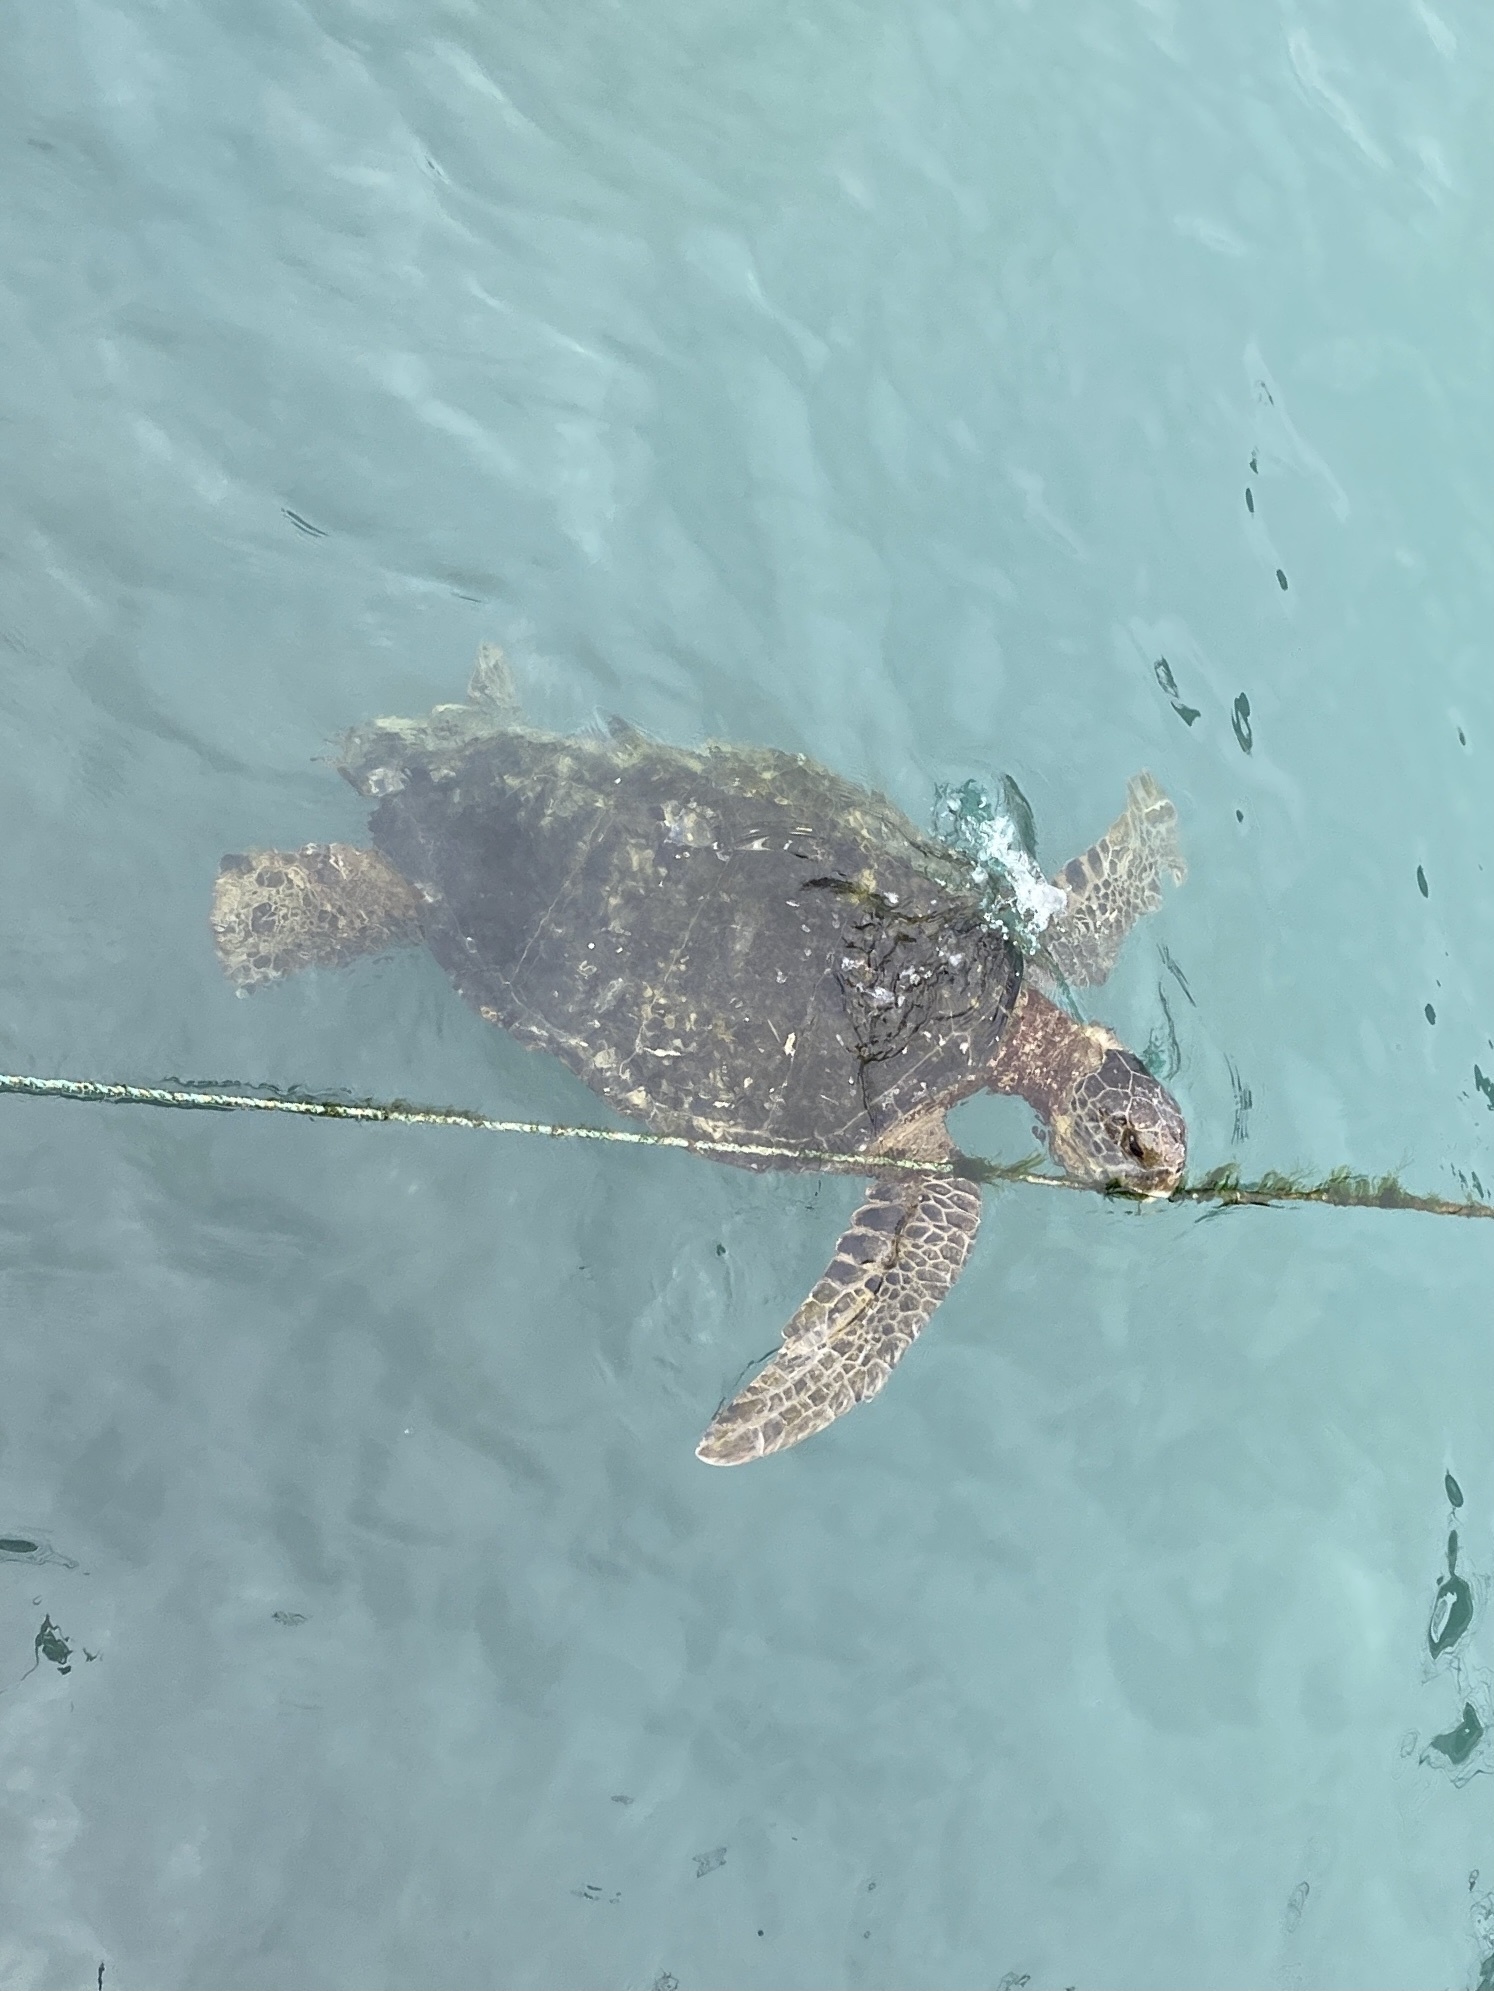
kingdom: Animalia
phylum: Chordata
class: Testudines
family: Cheloniidae
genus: Chelonia
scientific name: Chelonia mydas
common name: Green turtle
